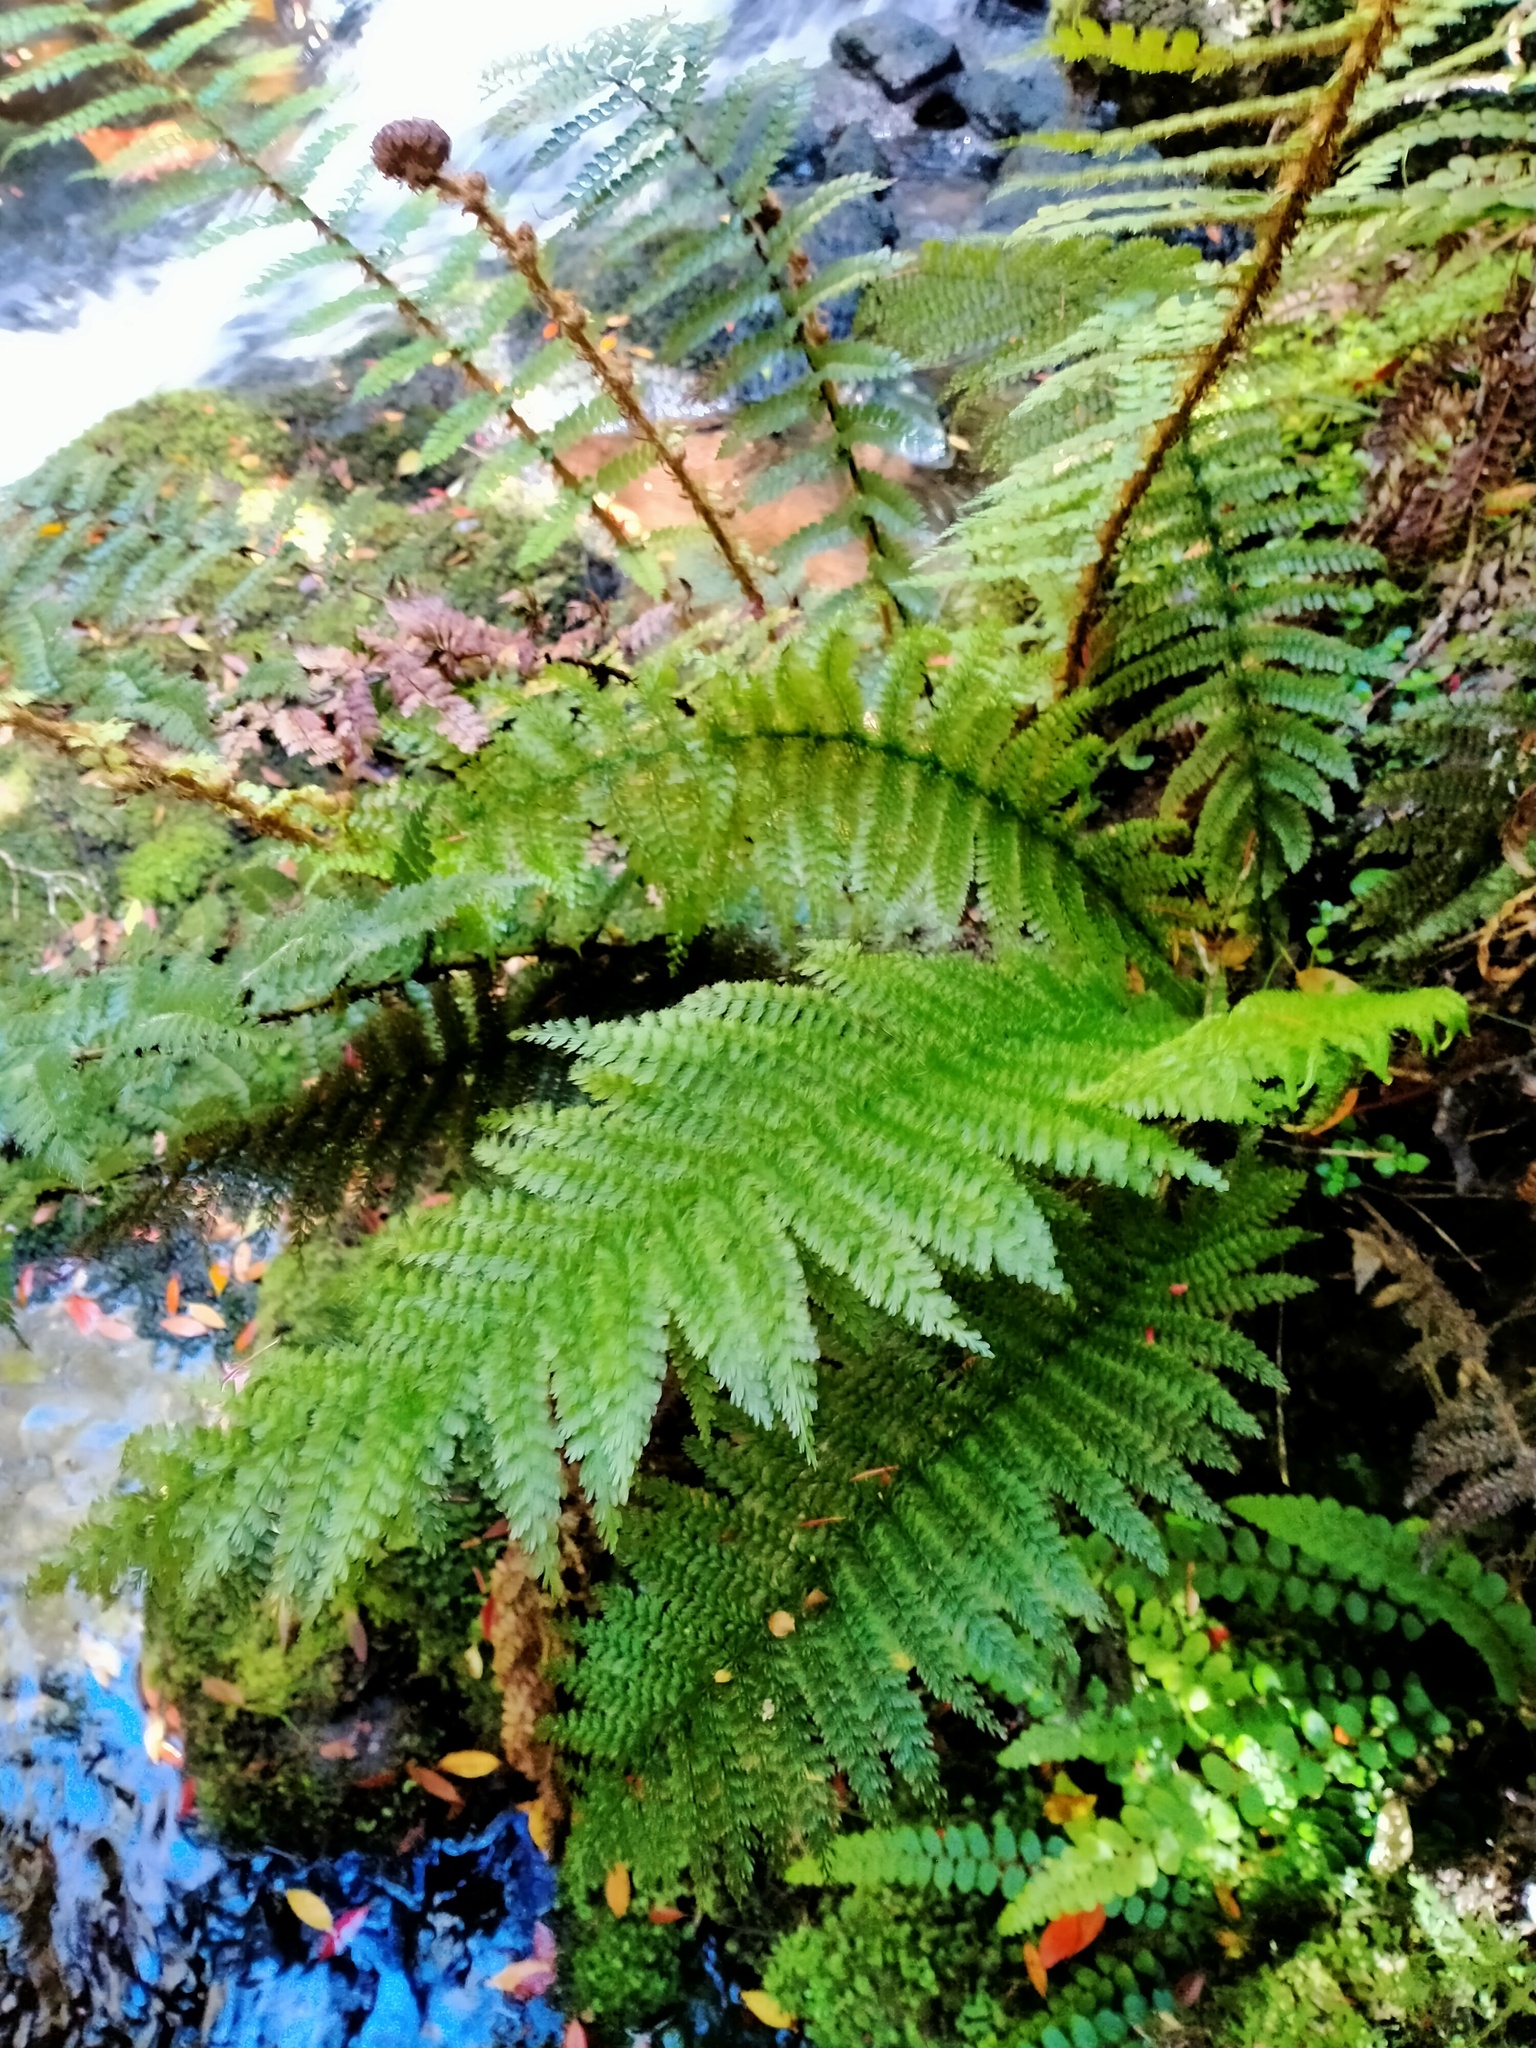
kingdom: Plantae
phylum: Tracheophyta
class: Polypodiopsida
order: Osmundales
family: Osmundaceae
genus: Leptopteris
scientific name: Leptopteris superba
